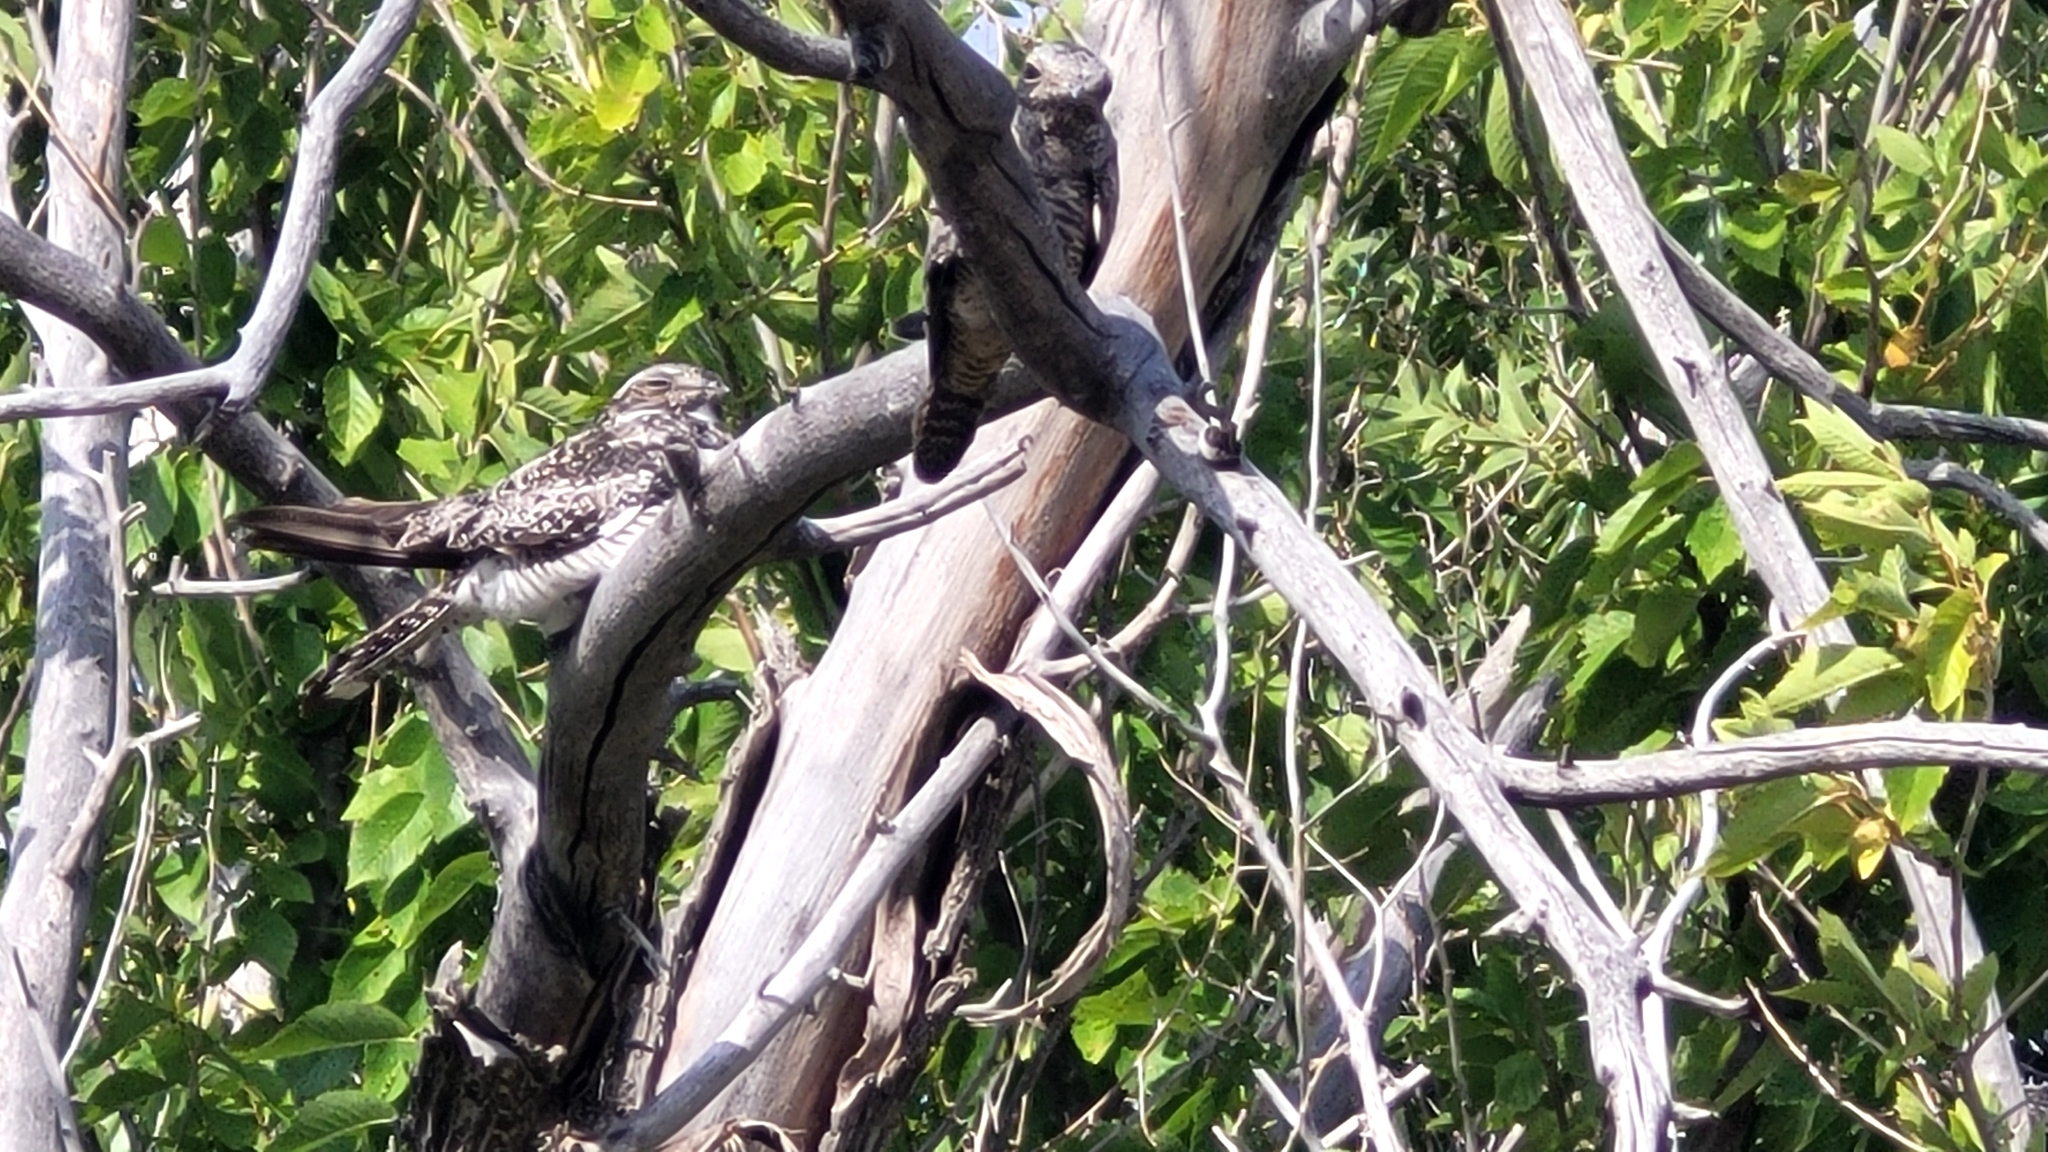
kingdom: Animalia
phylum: Chordata
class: Aves
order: Caprimulgiformes
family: Caprimulgidae
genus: Chordeiles
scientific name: Chordeiles minor
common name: Common nighthawk
